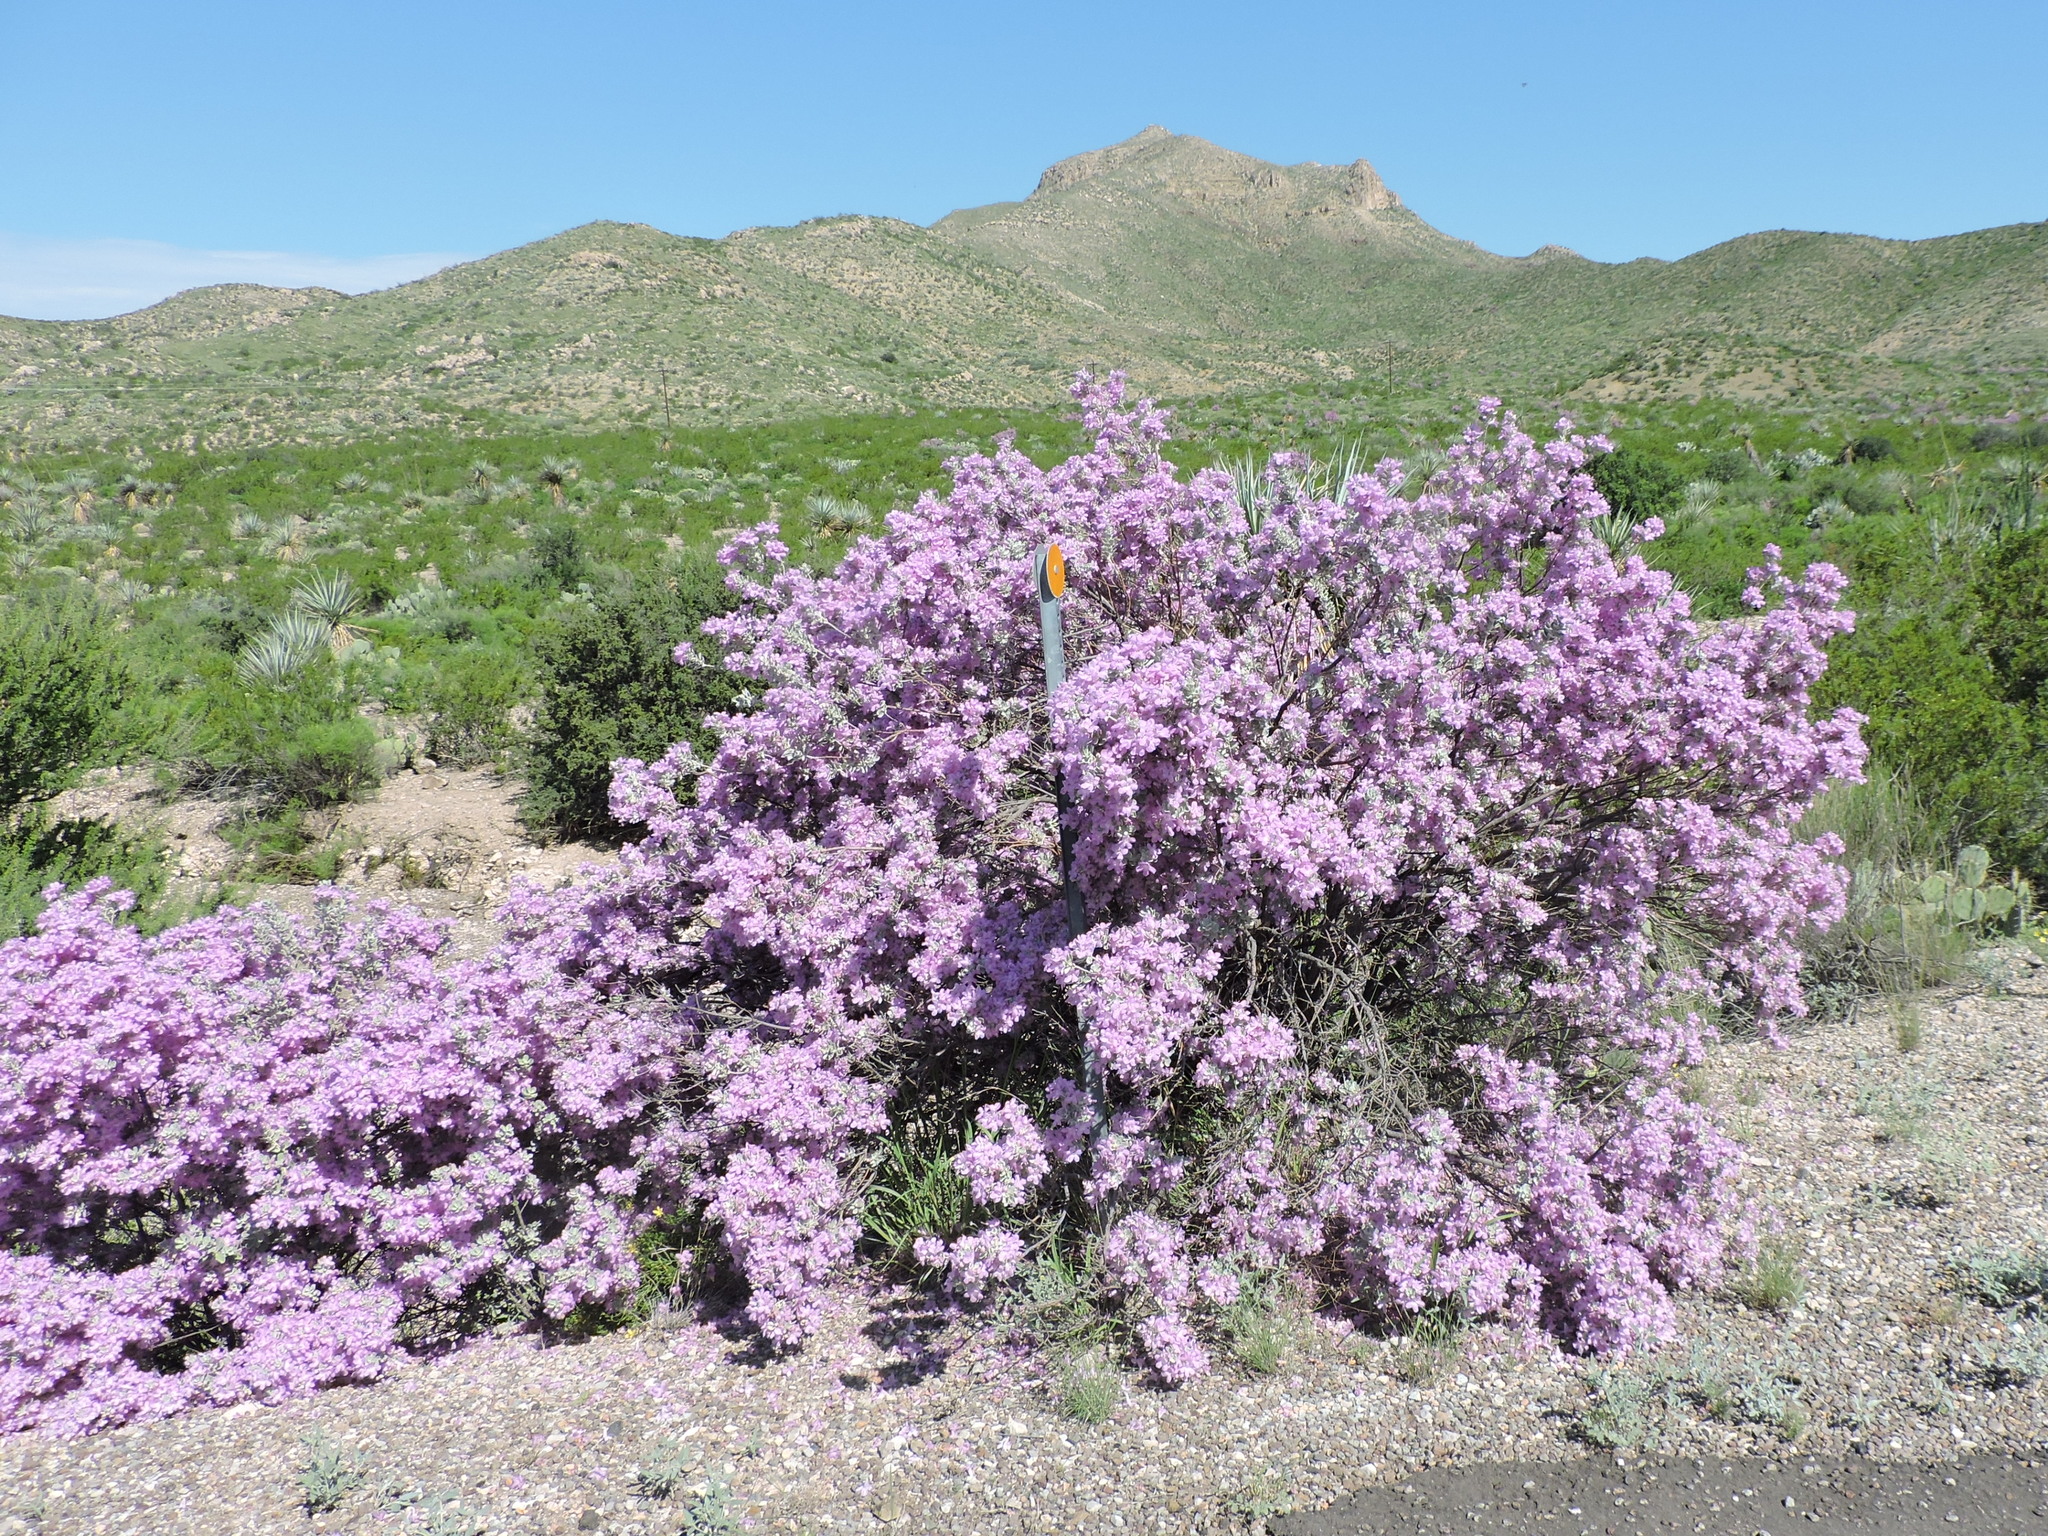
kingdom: Plantae
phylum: Tracheophyta
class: Magnoliopsida
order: Lamiales
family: Scrophulariaceae
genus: Leucophyllum
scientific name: Leucophyllum frutescens
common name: Texas silverleaf
